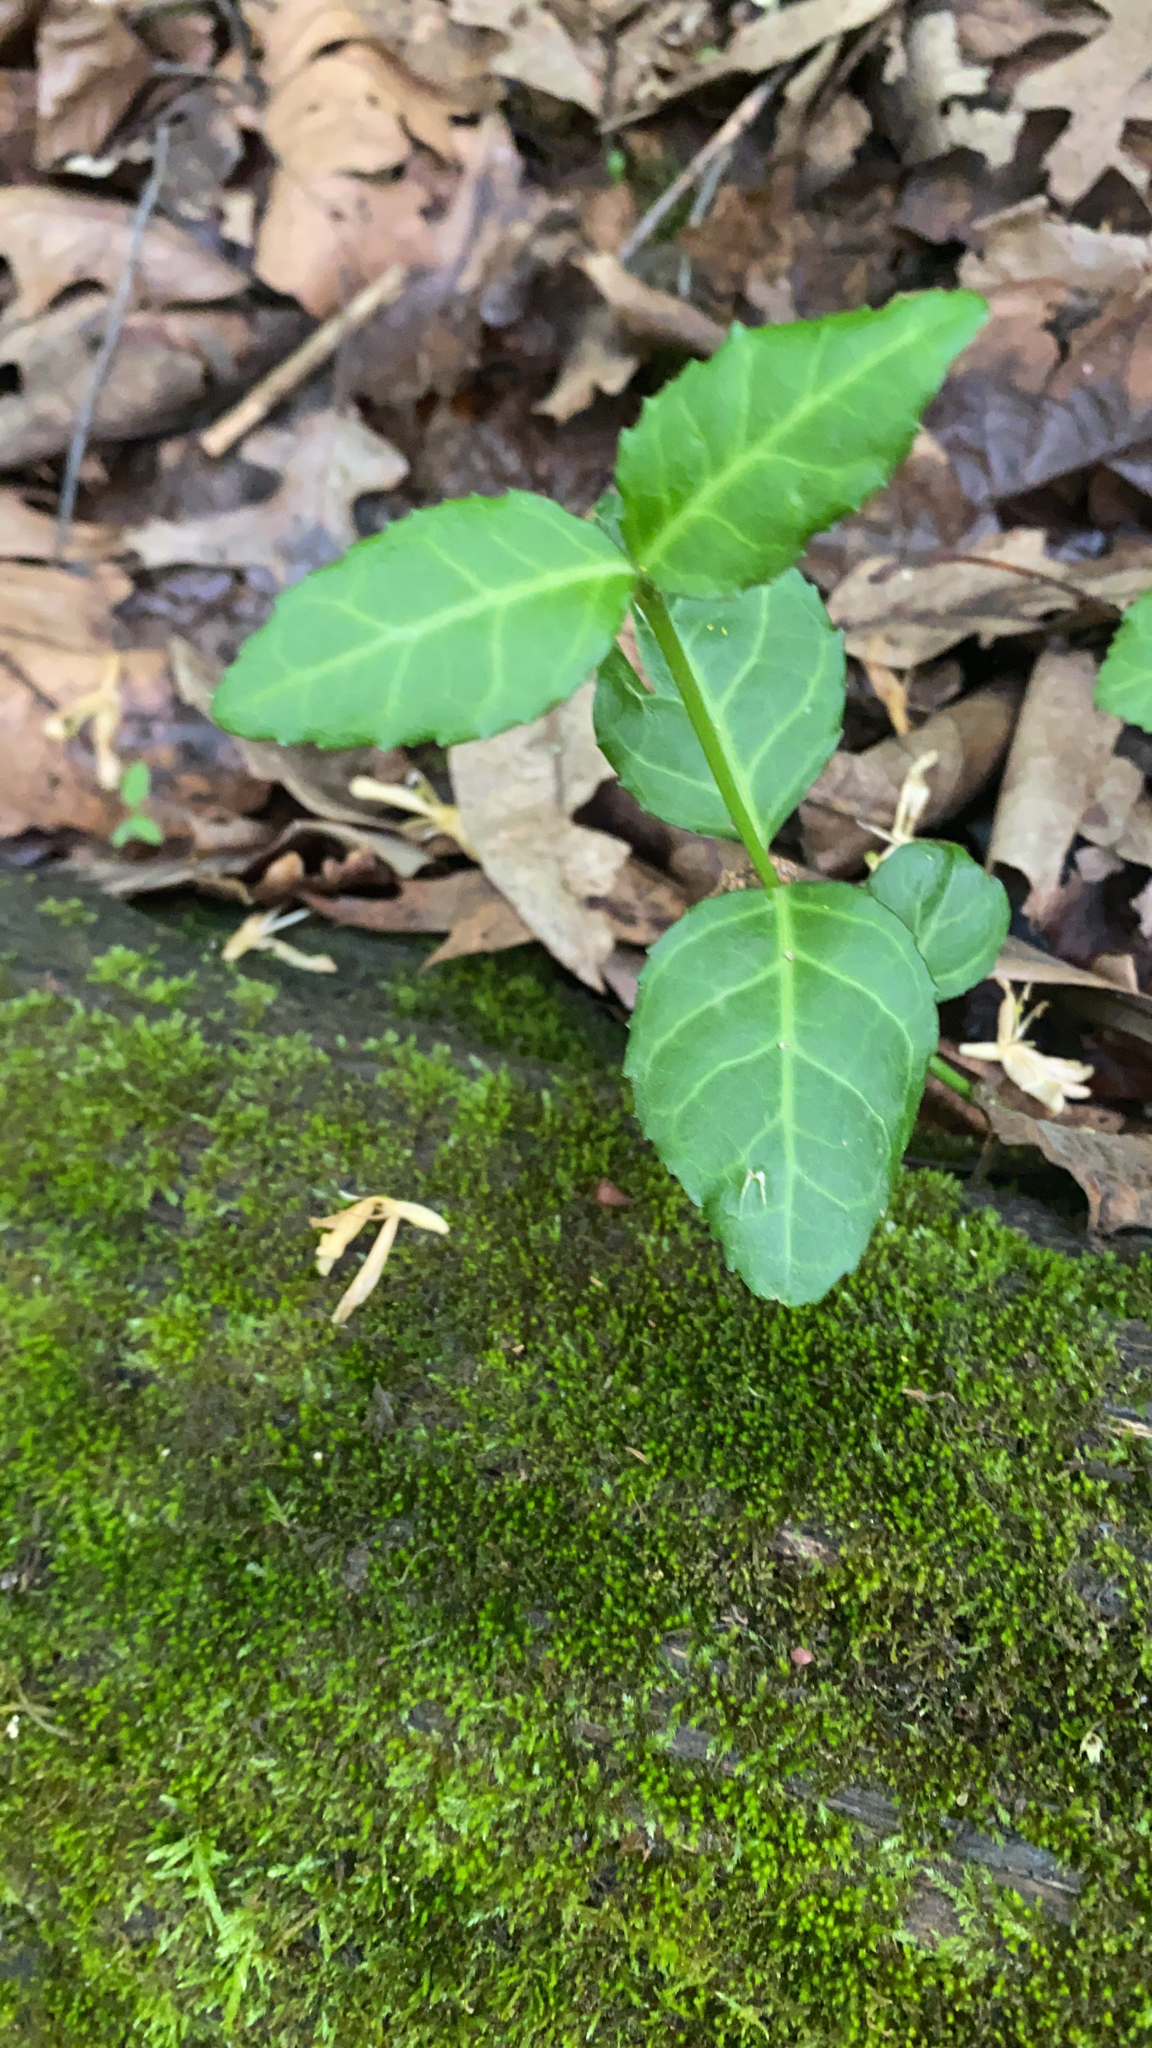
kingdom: Plantae
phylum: Tracheophyta
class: Magnoliopsida
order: Celastrales
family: Celastraceae
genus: Euonymus
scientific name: Euonymus fortunei
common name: Climbing euonymus
